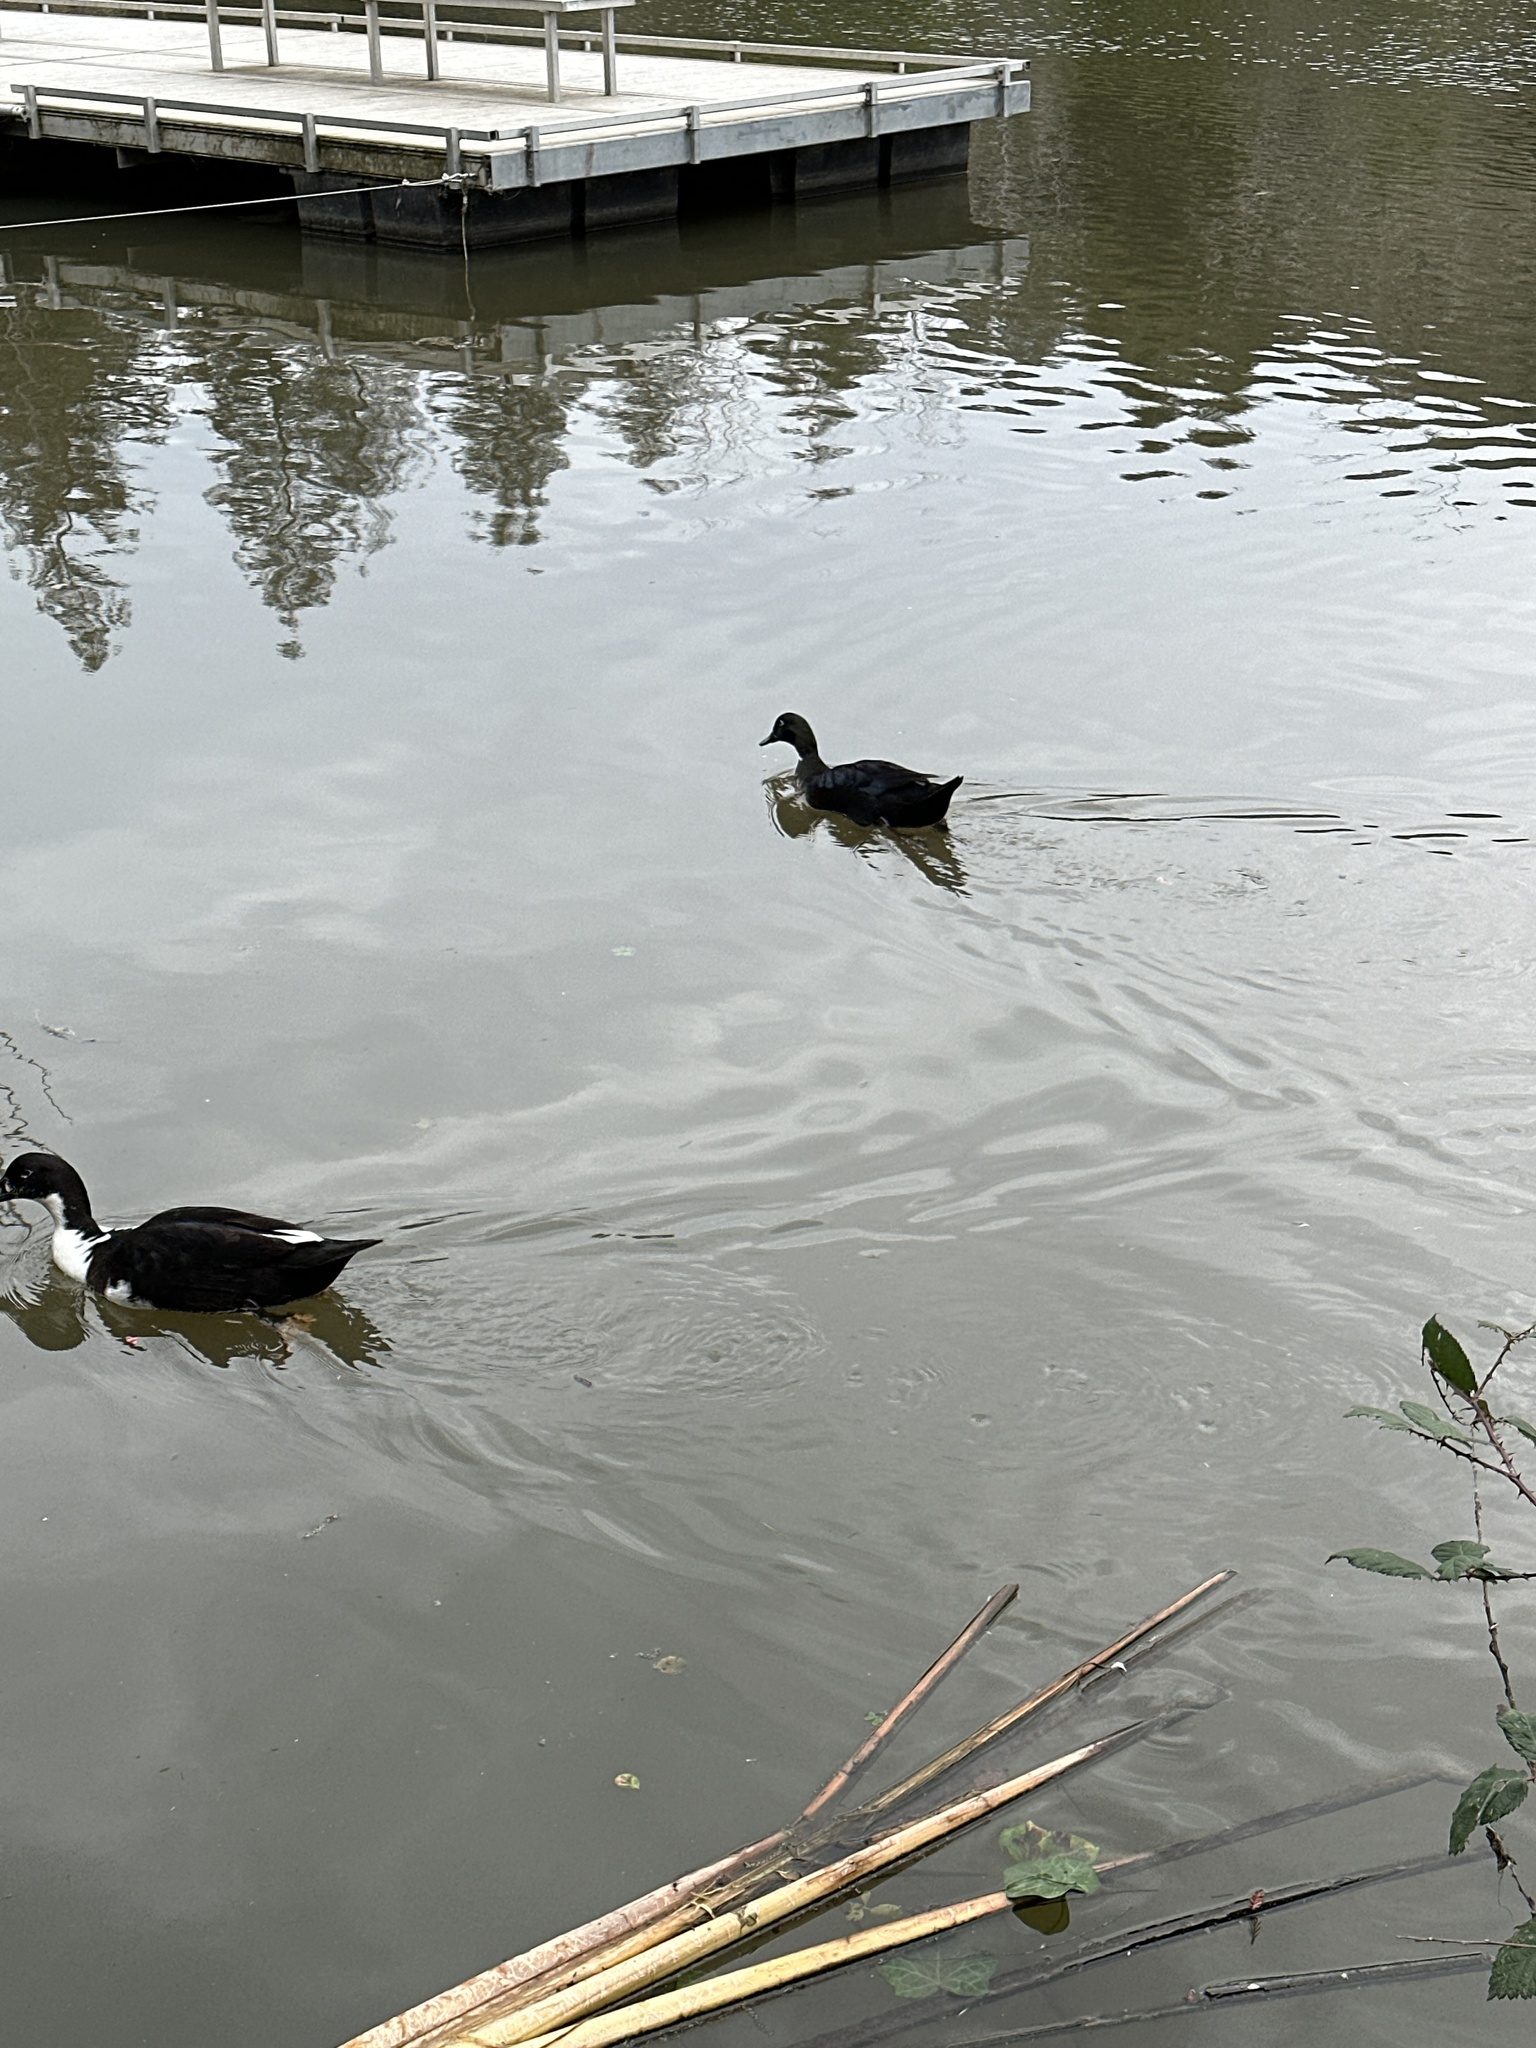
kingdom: Animalia
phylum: Chordata
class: Aves
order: Anseriformes
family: Anatidae
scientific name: Anatidae
